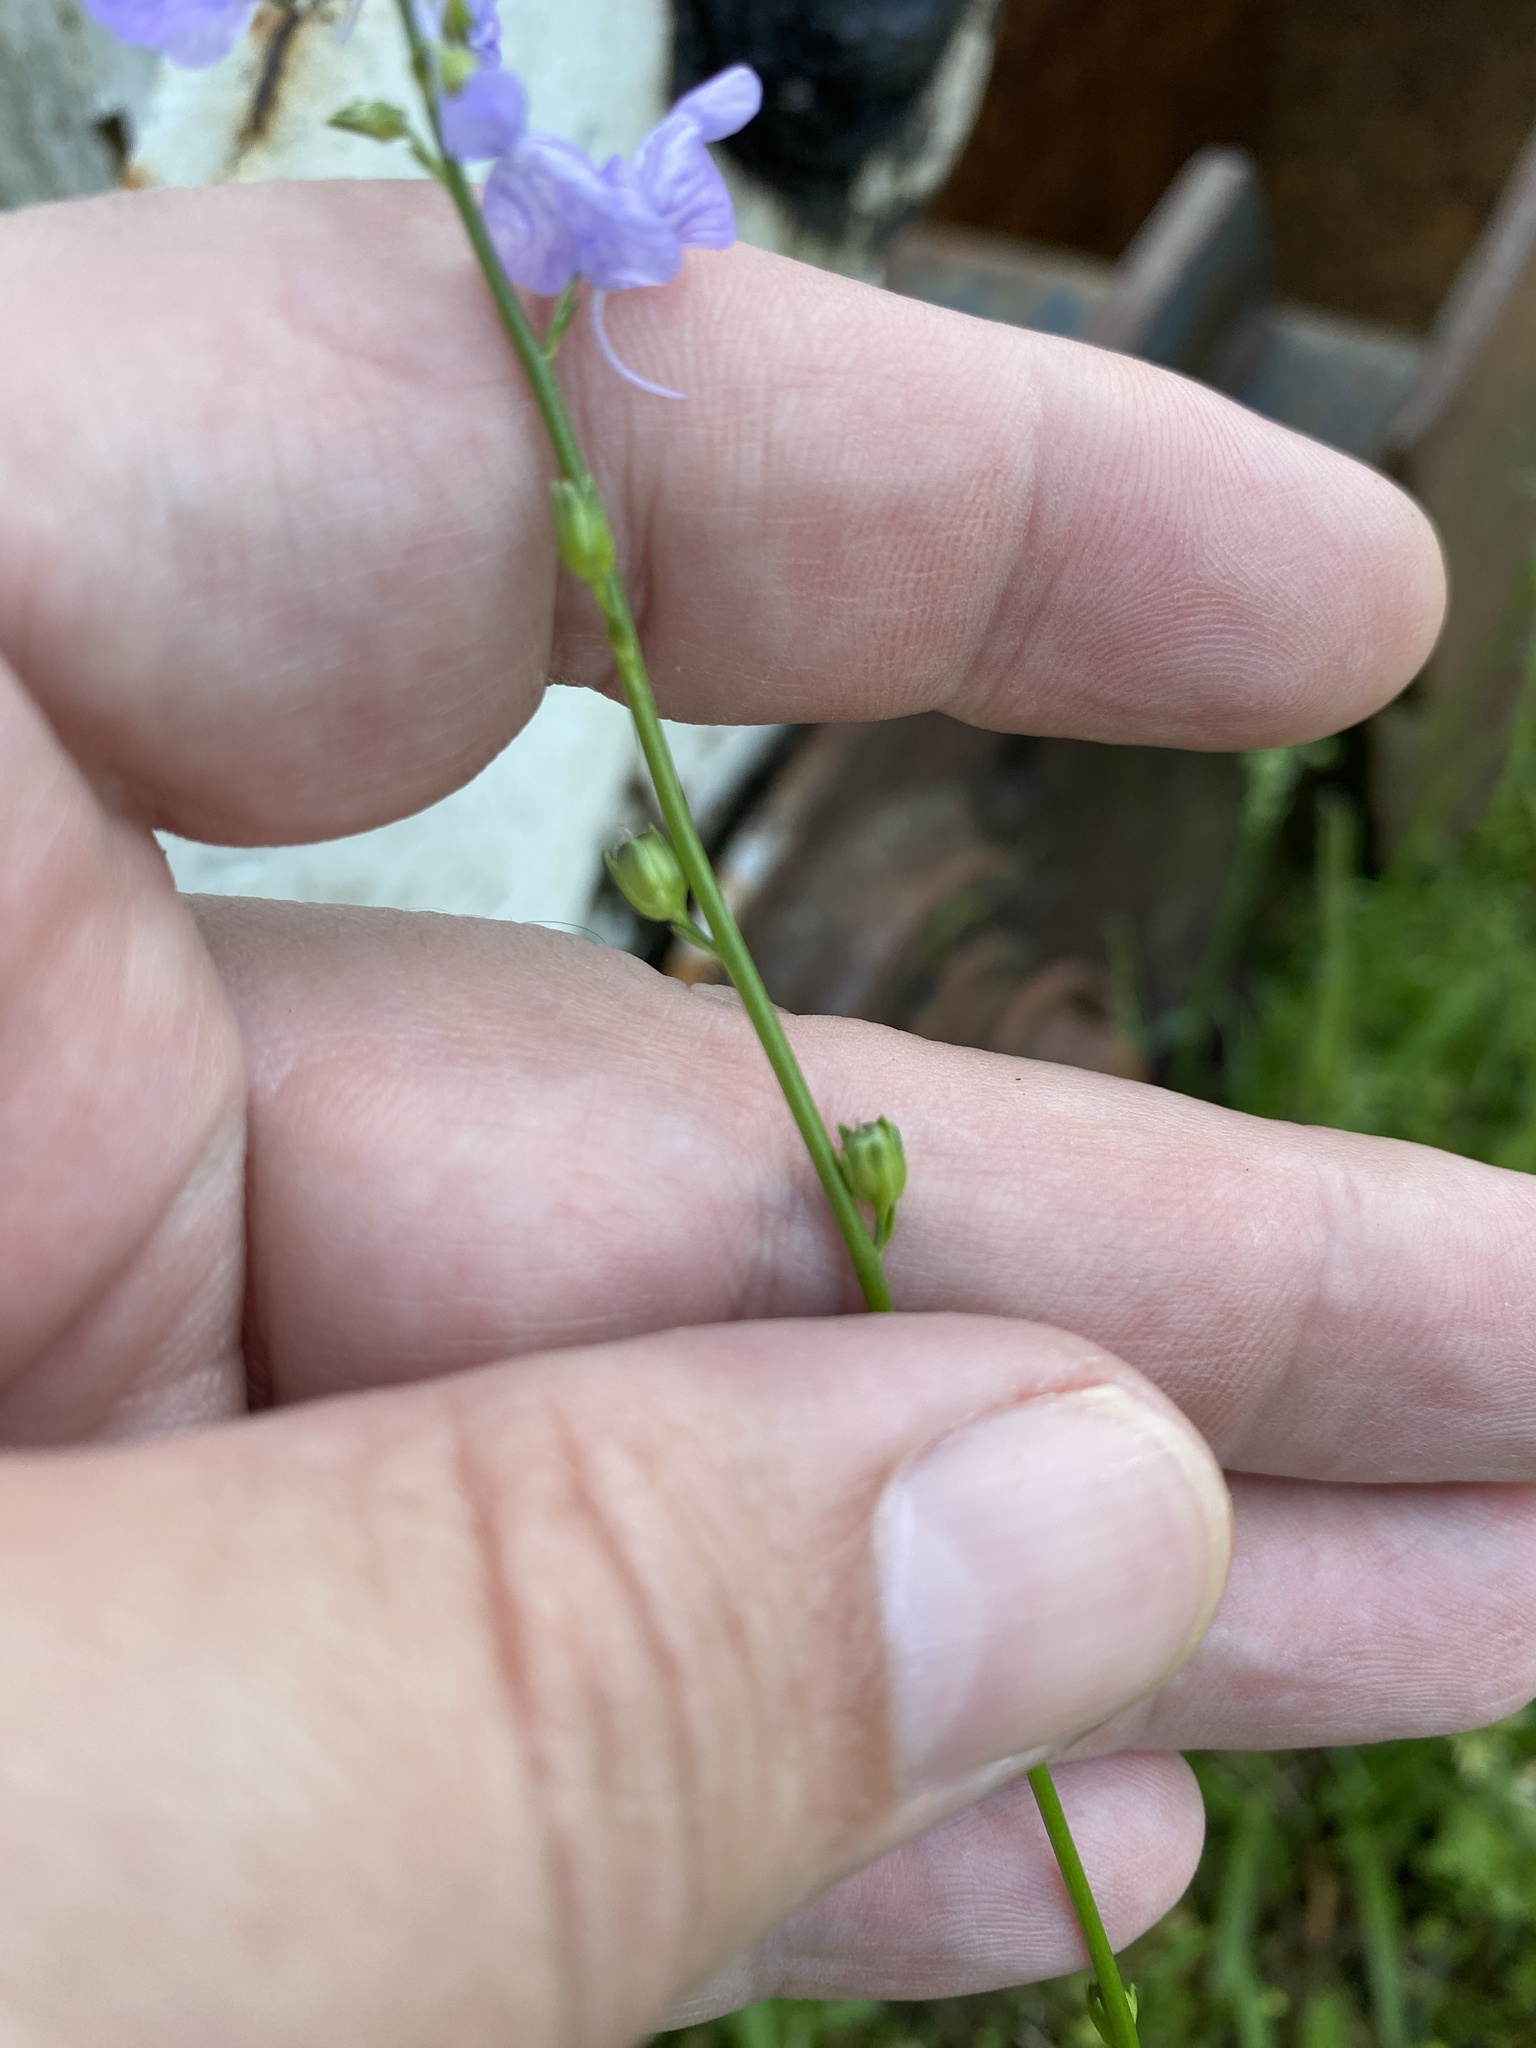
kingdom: Plantae
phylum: Tracheophyta
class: Magnoliopsida
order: Lamiales
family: Plantaginaceae
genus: Nuttallanthus
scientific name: Nuttallanthus texanus
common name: Texas toadflax
